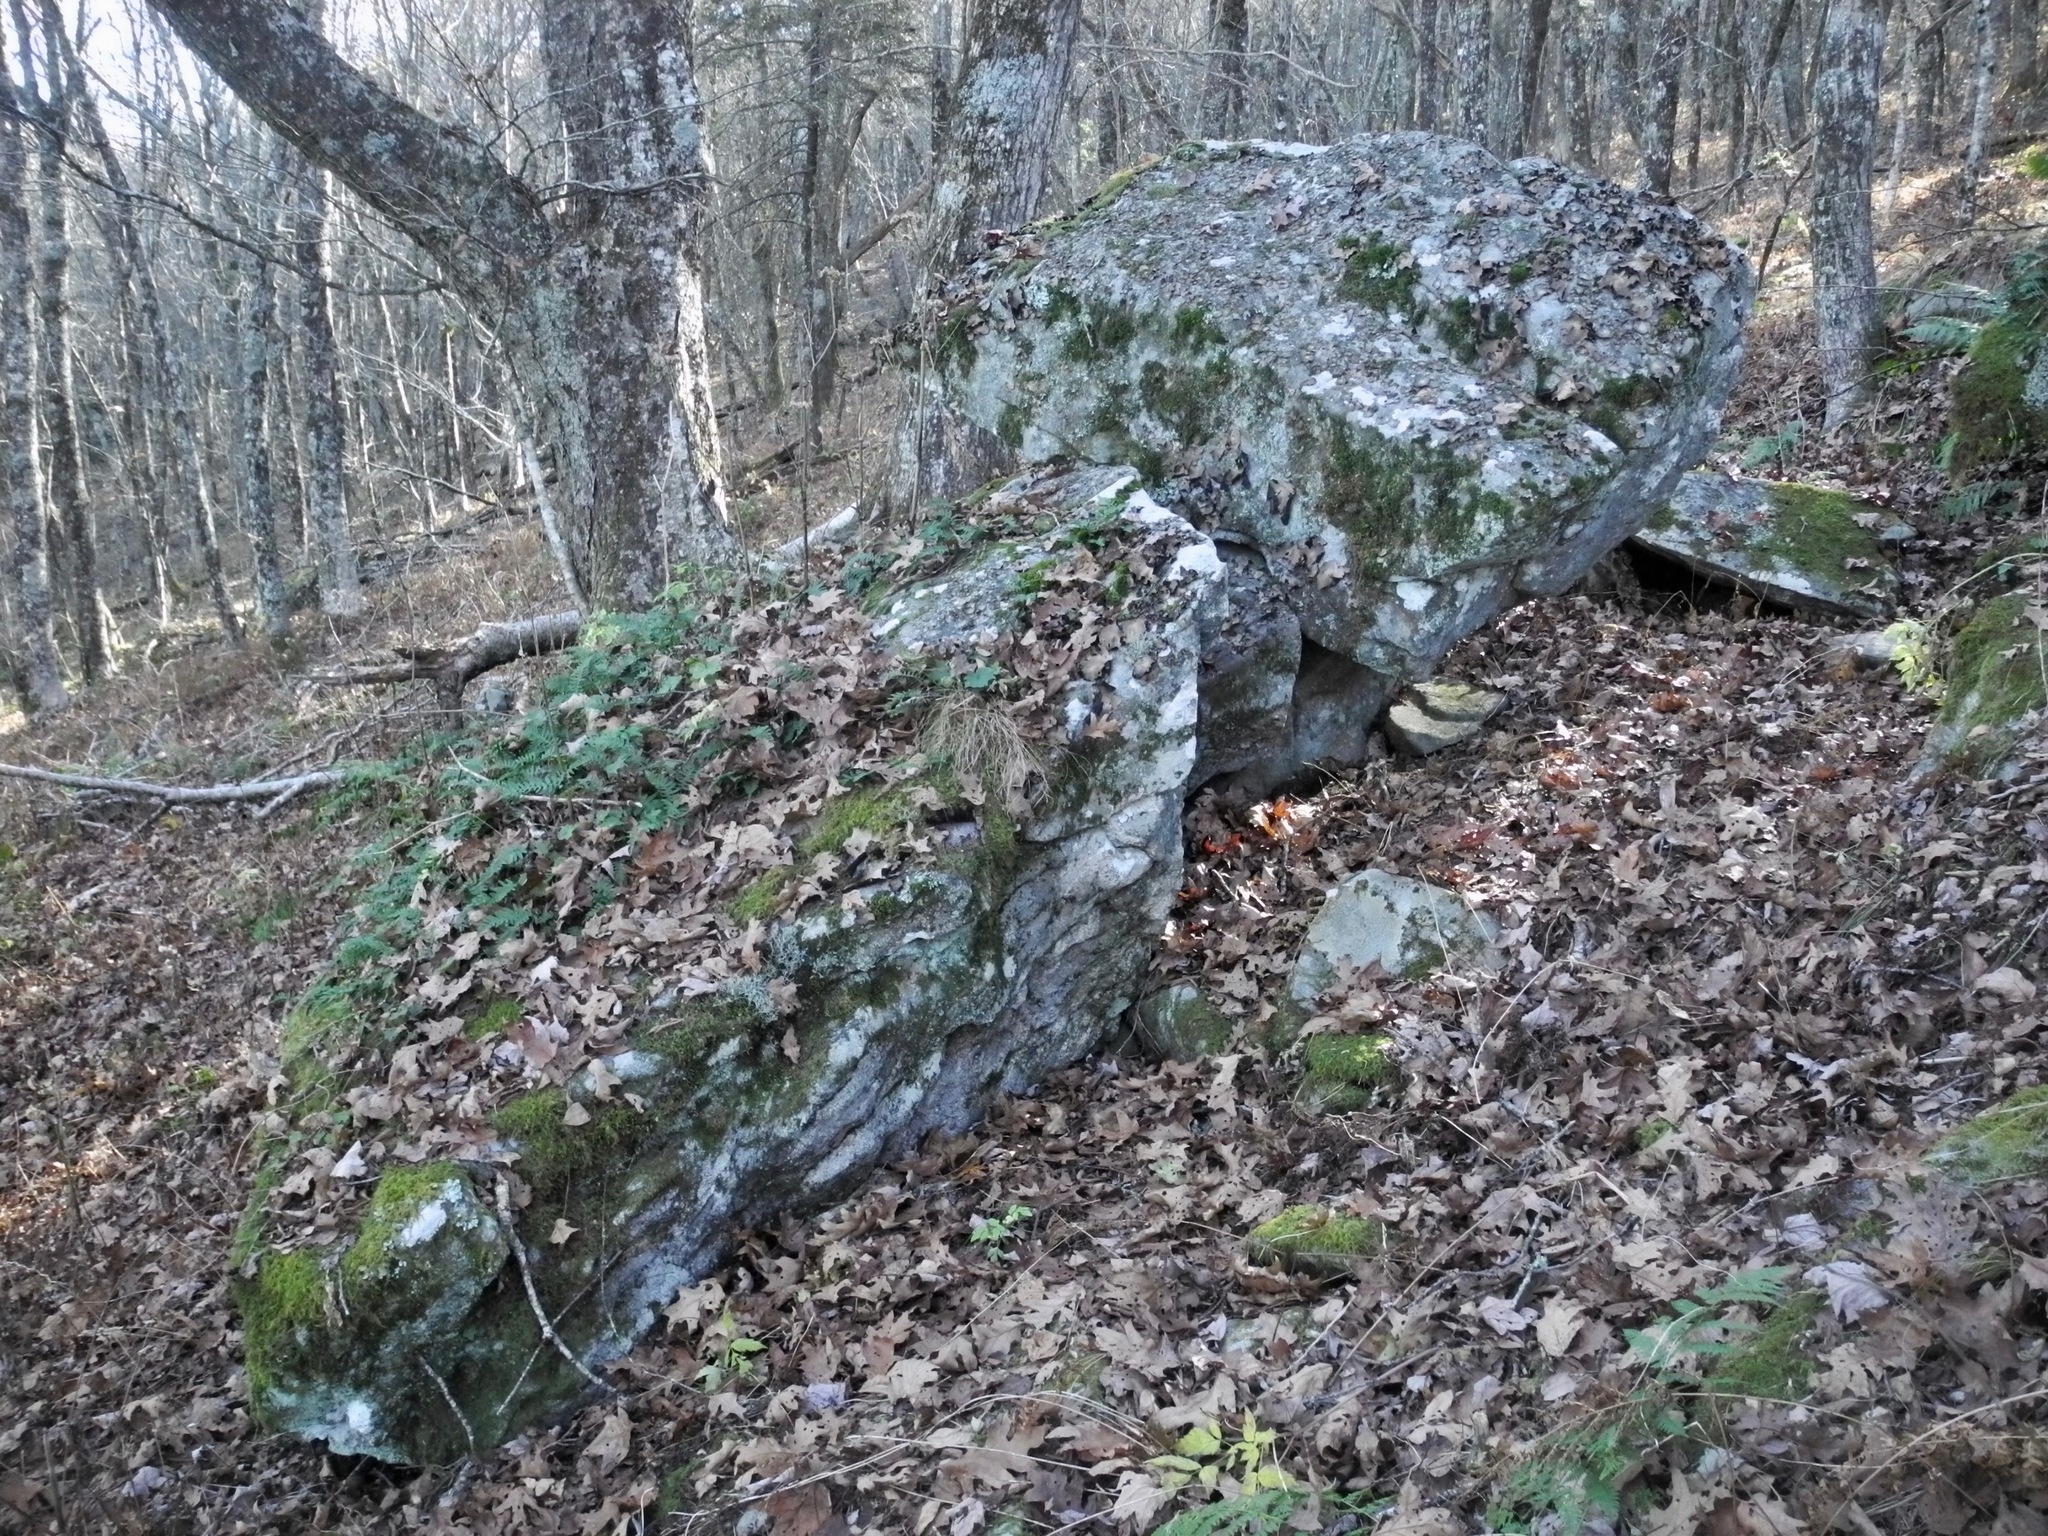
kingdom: Plantae
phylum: Tracheophyta
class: Polypodiopsida
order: Polypodiales
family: Polypodiaceae
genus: Polypodium
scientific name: Polypodium virginianum
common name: American wall fern
